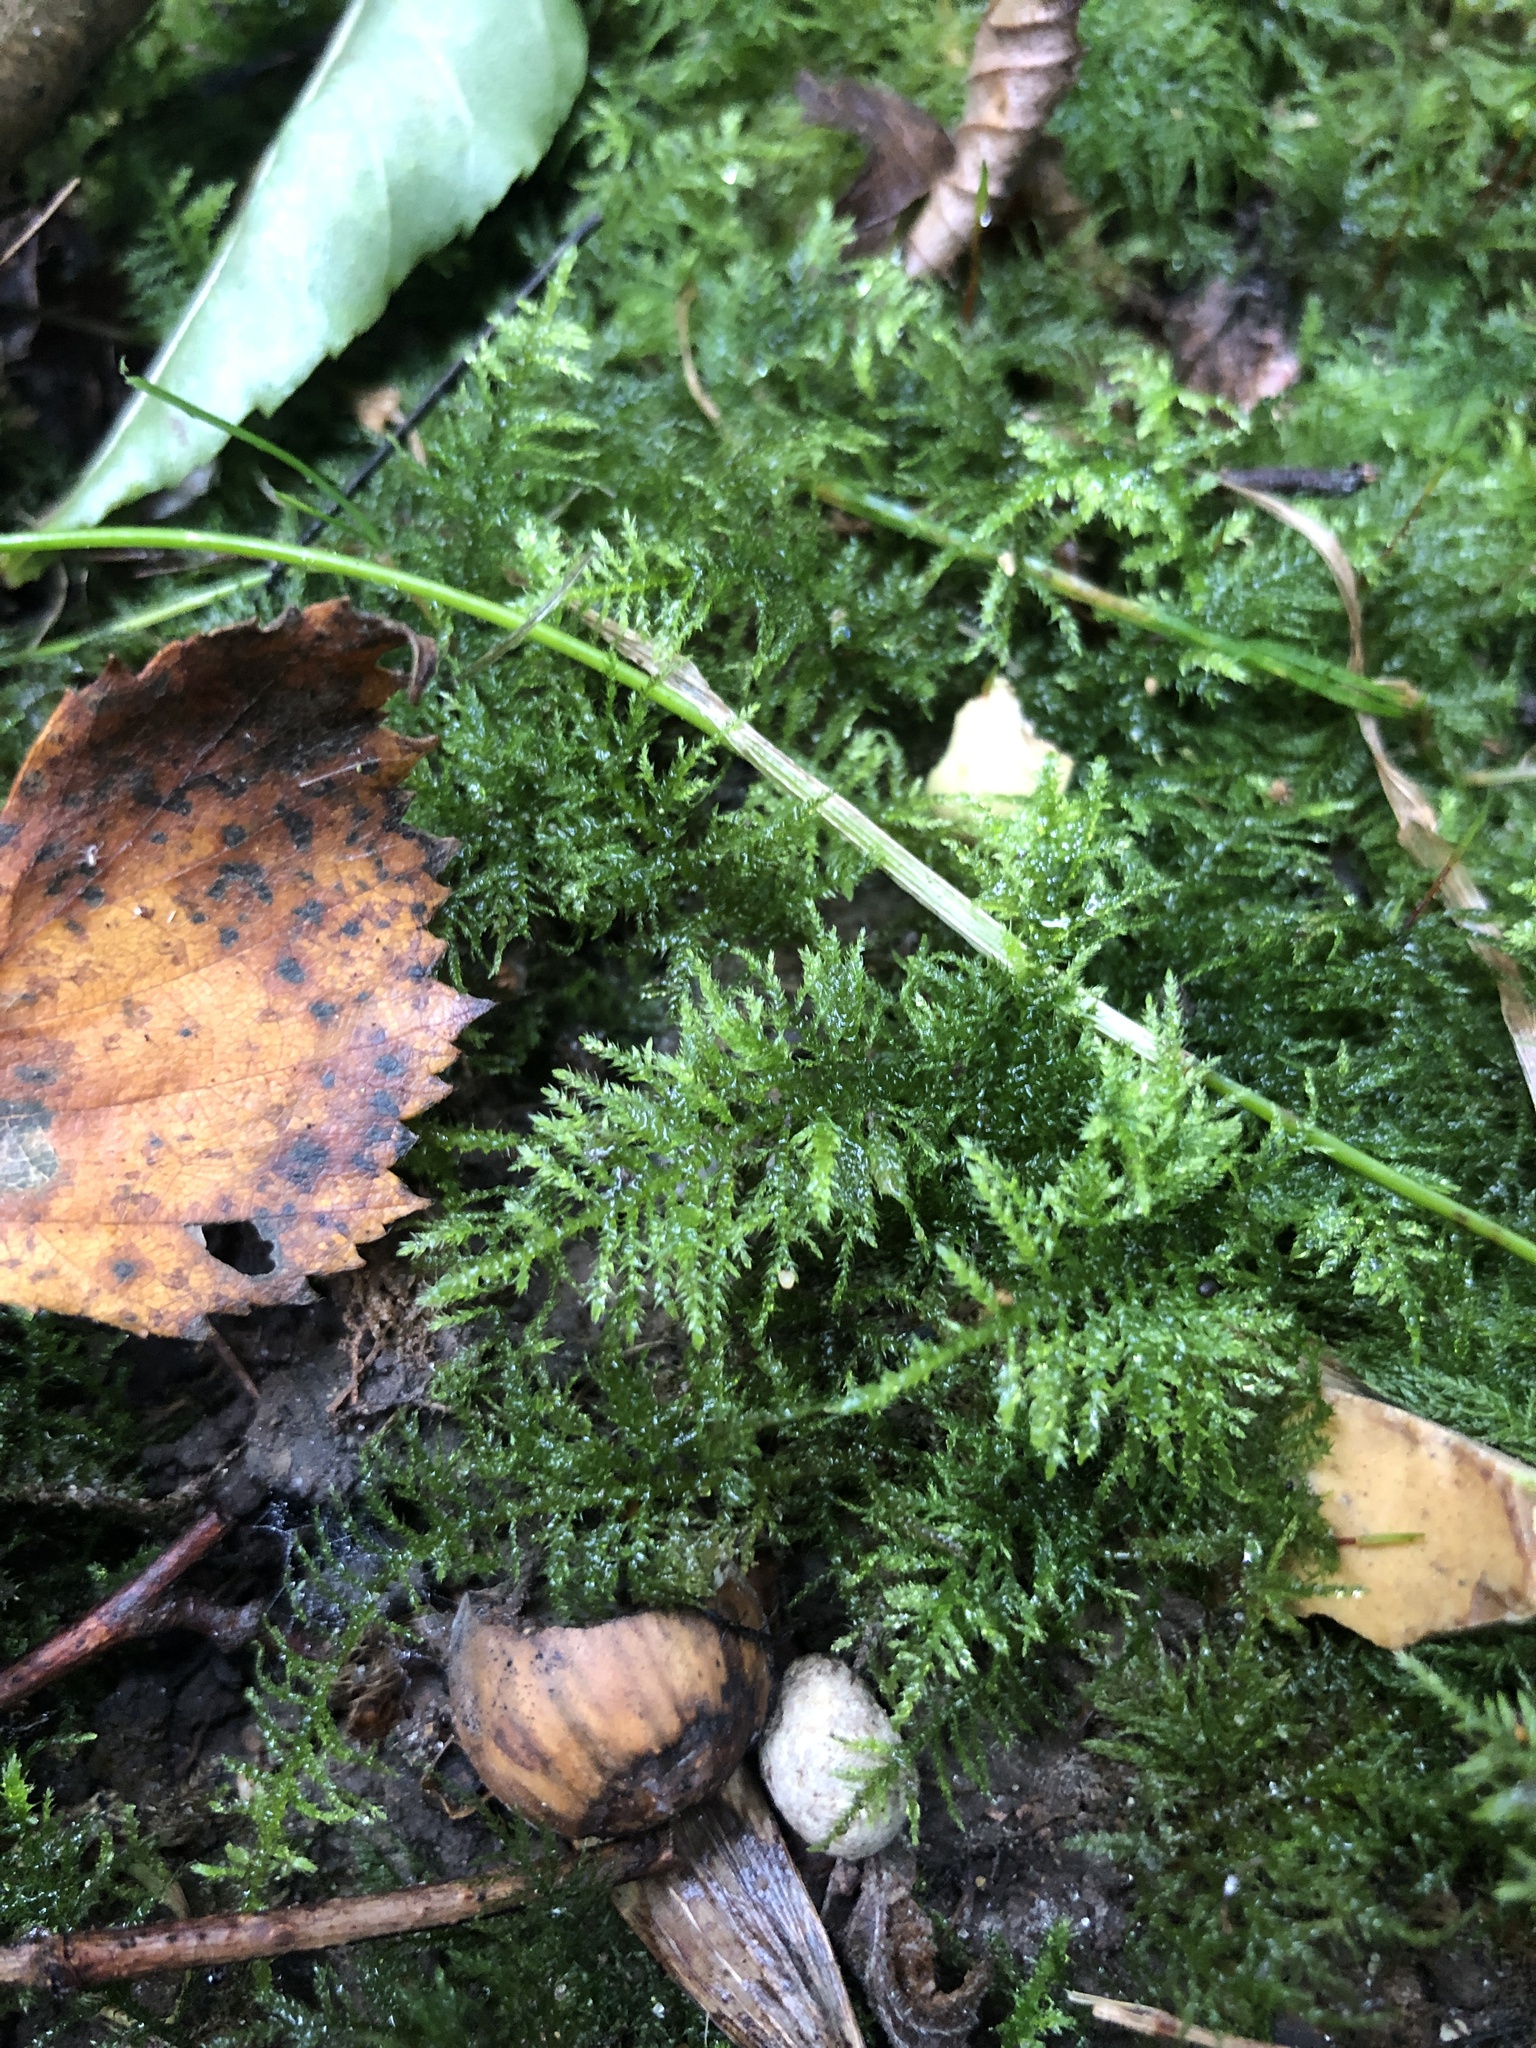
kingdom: Plantae
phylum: Bryophyta
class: Bryopsida
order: Hypnales
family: Brachytheciaceae
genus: Kindbergia
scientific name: Kindbergia praelonga
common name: Slender beaked moss
